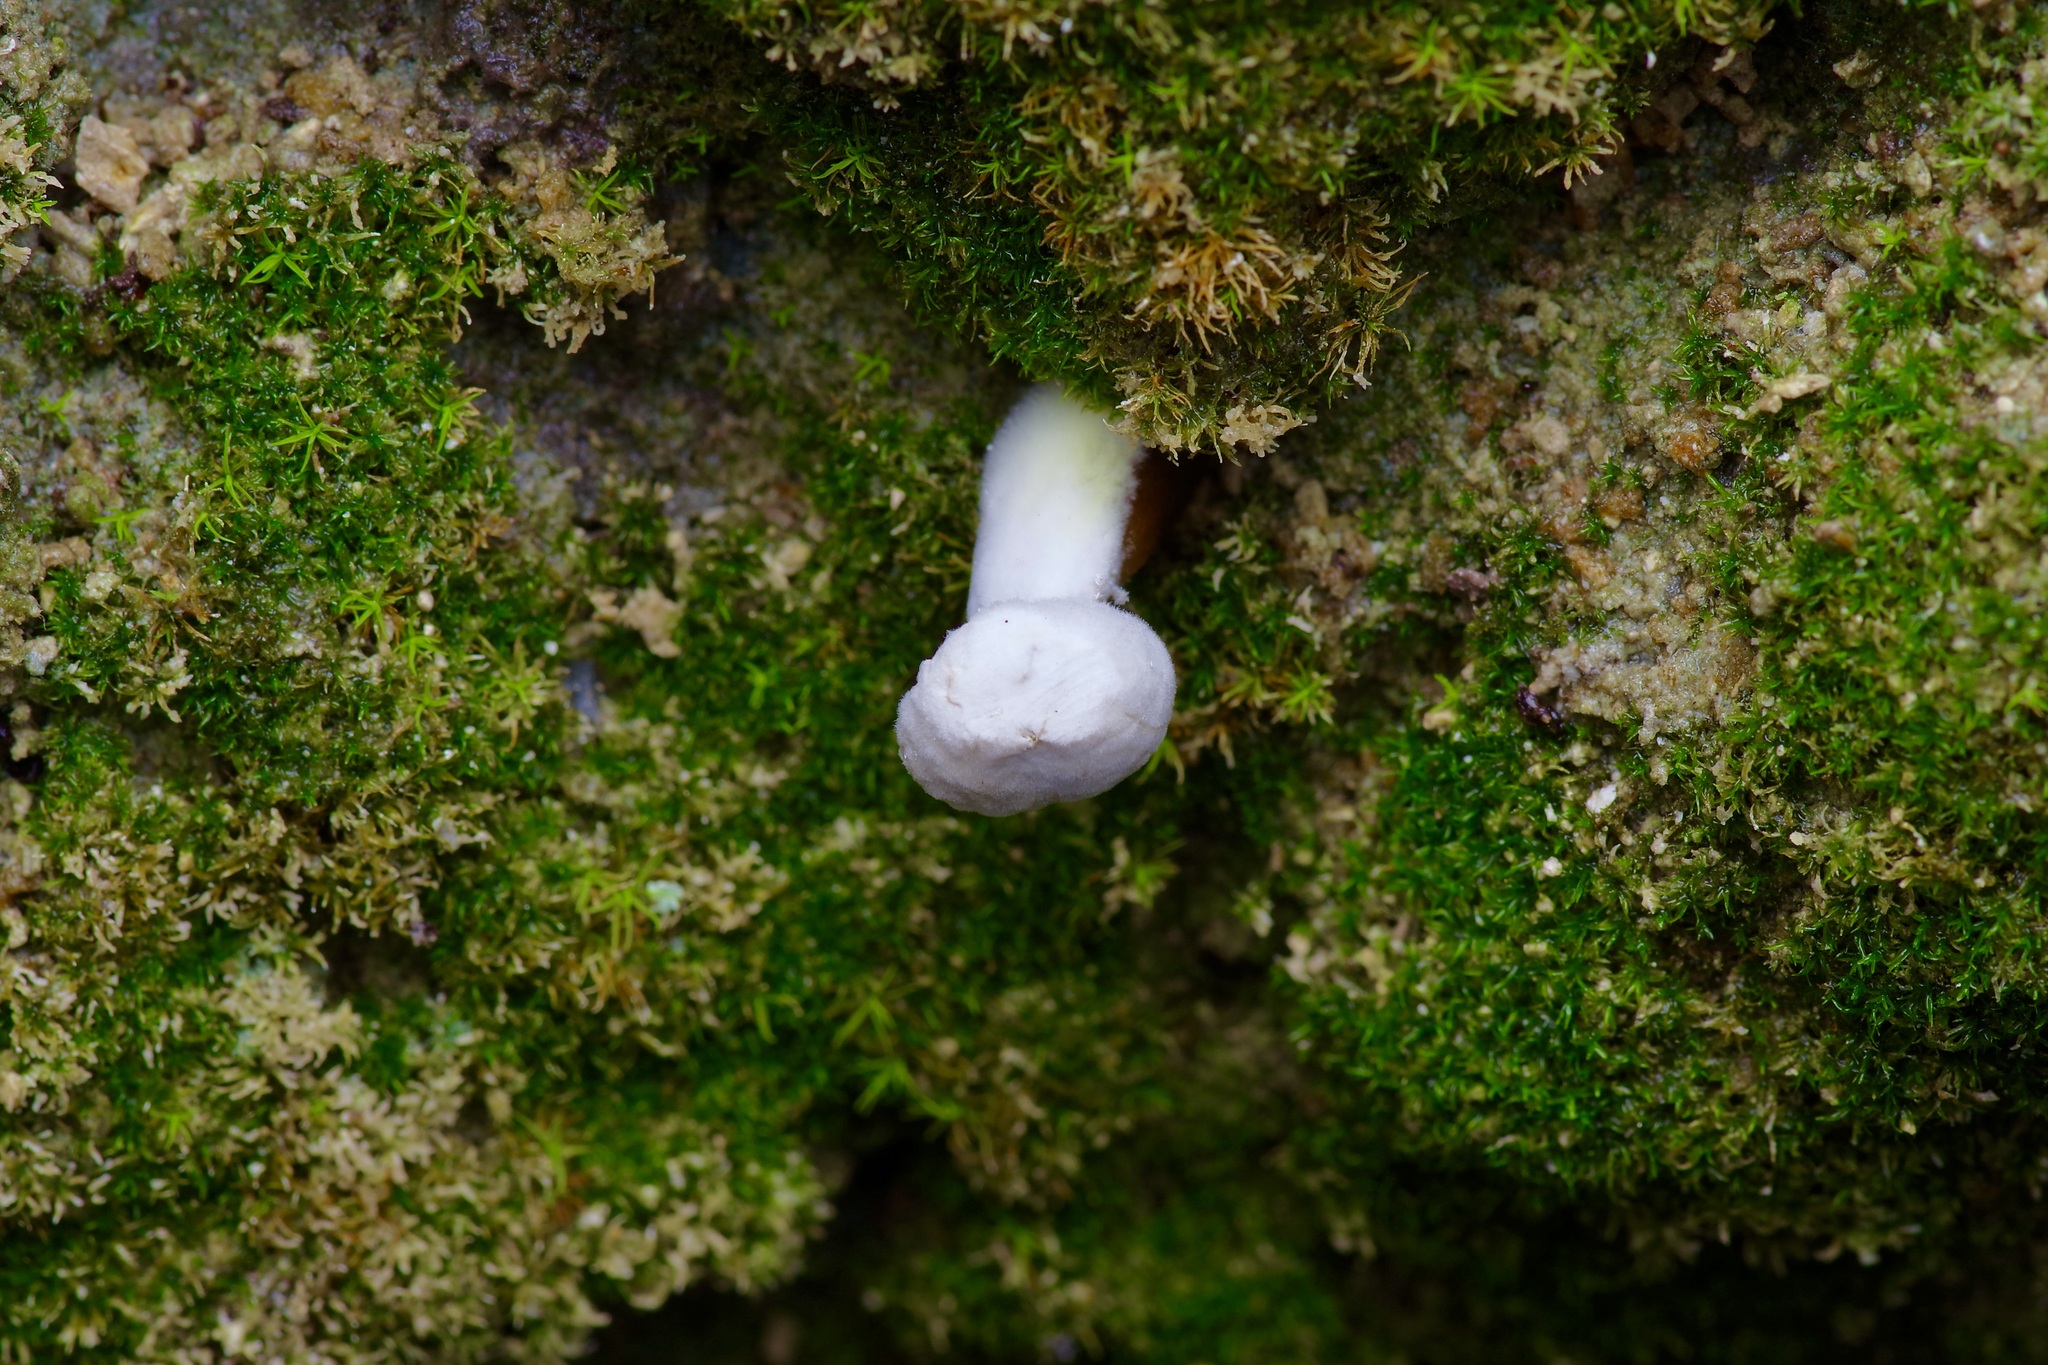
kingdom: Fungi
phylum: Ascomycota
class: Sordariomycetes
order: Hypocreales
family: Hypocreaceae
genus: Hypomyces
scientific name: Hypomyces microspermus
